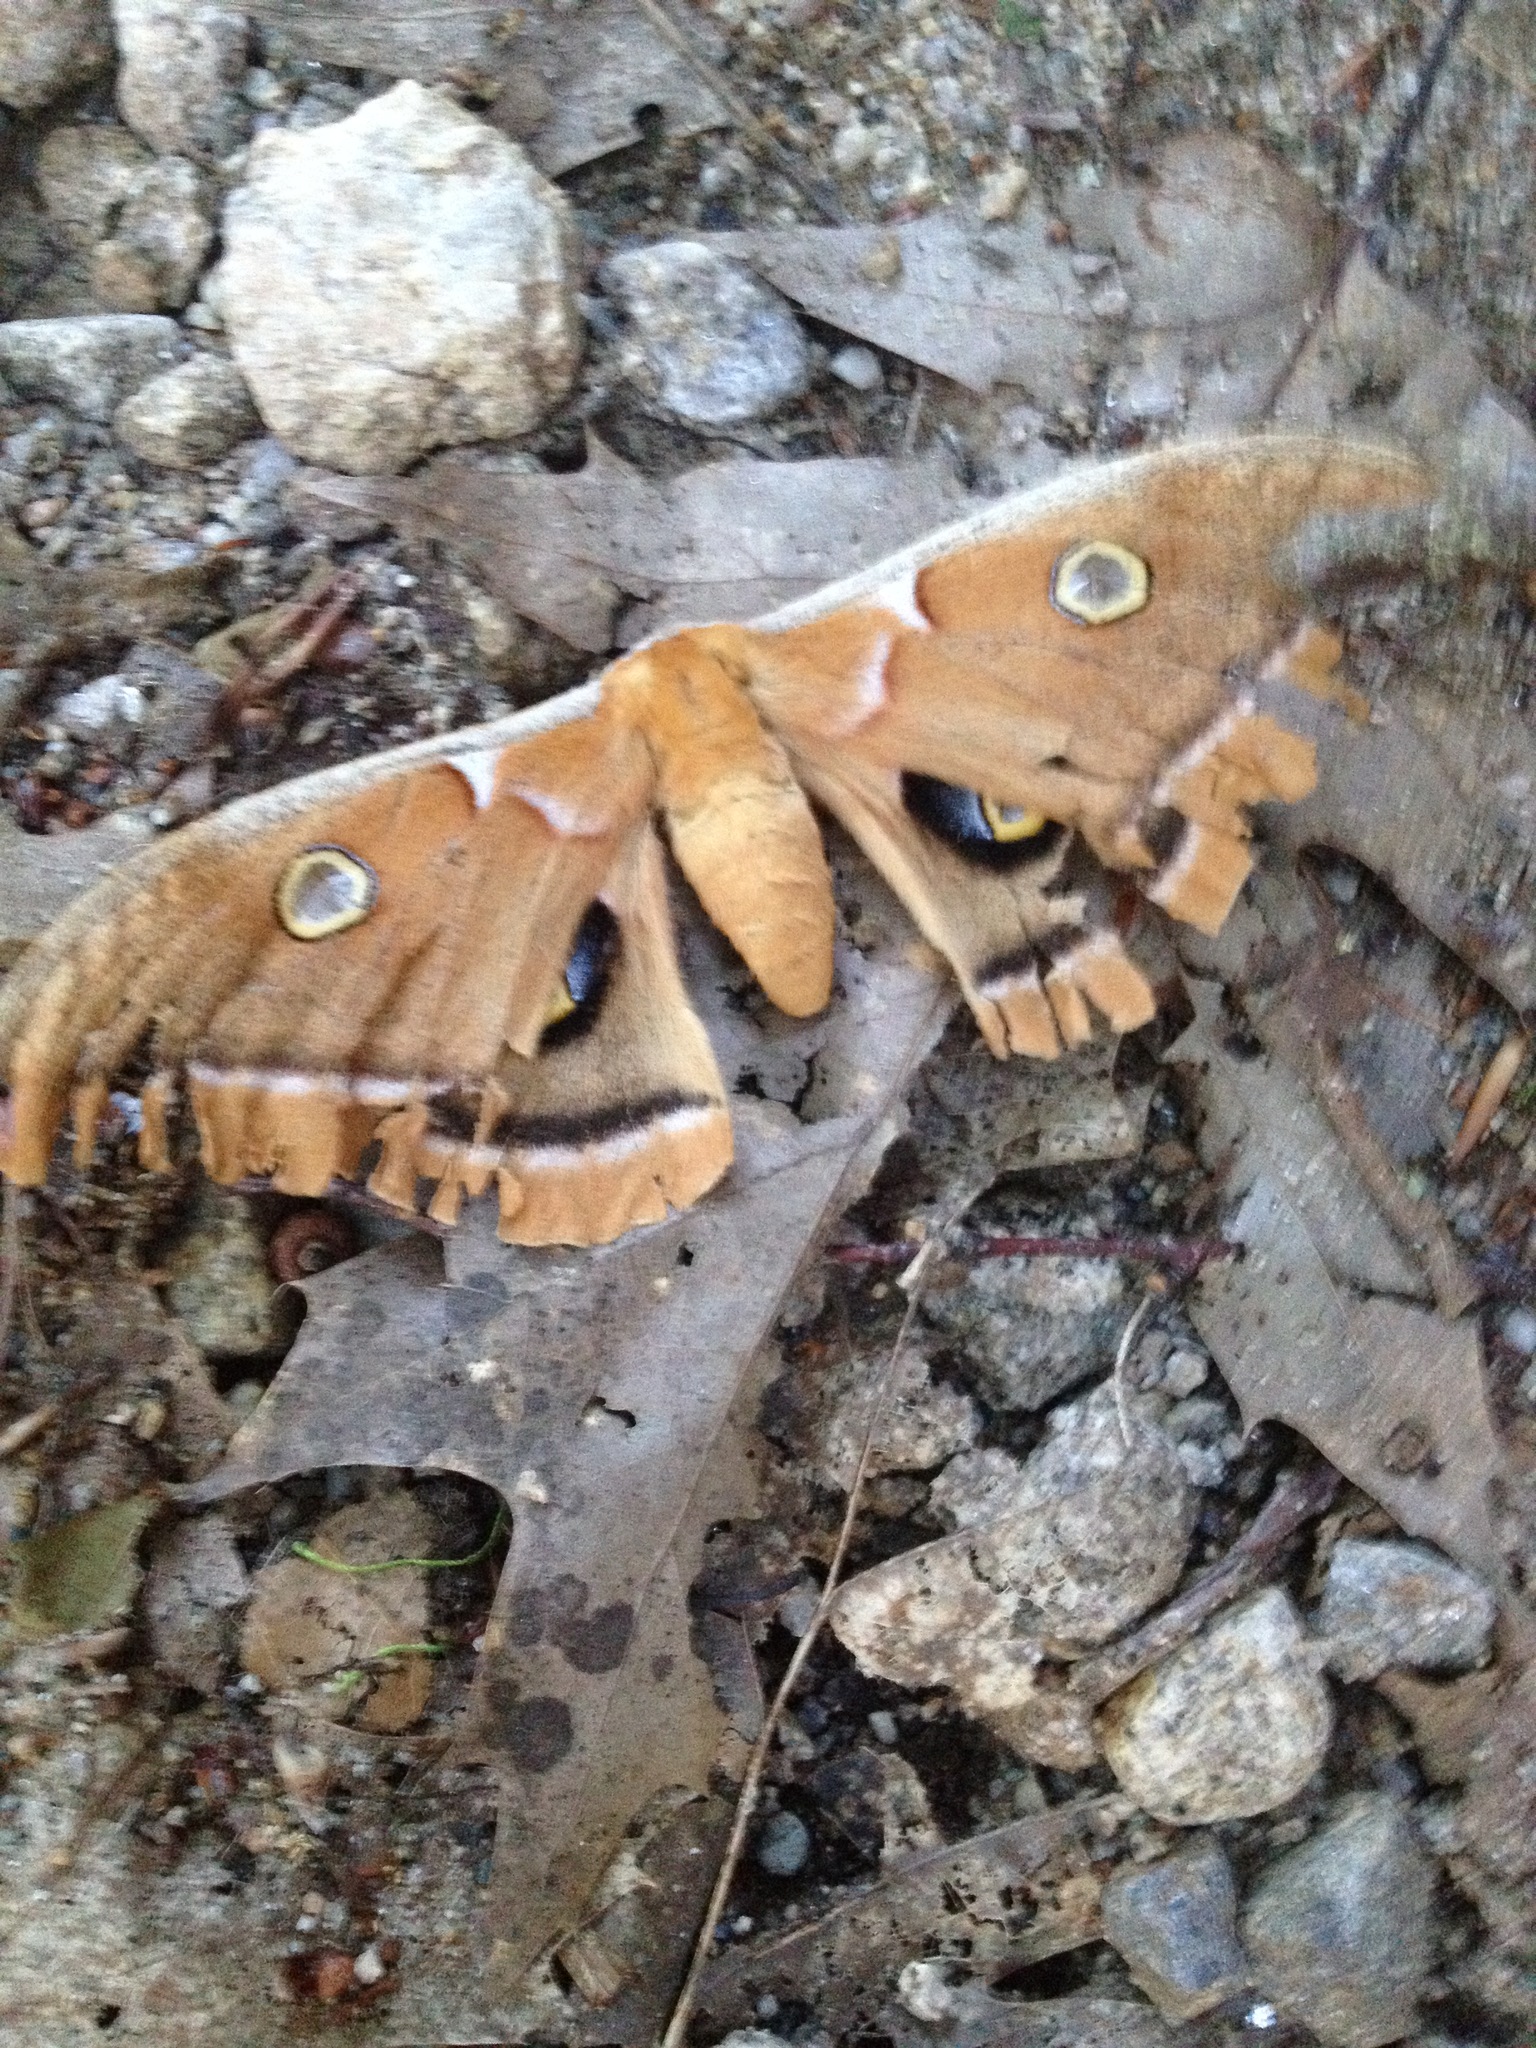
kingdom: Animalia
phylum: Arthropoda
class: Insecta
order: Lepidoptera
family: Saturniidae
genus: Antheraea
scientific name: Antheraea polyphemus
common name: Polyphemus moth
